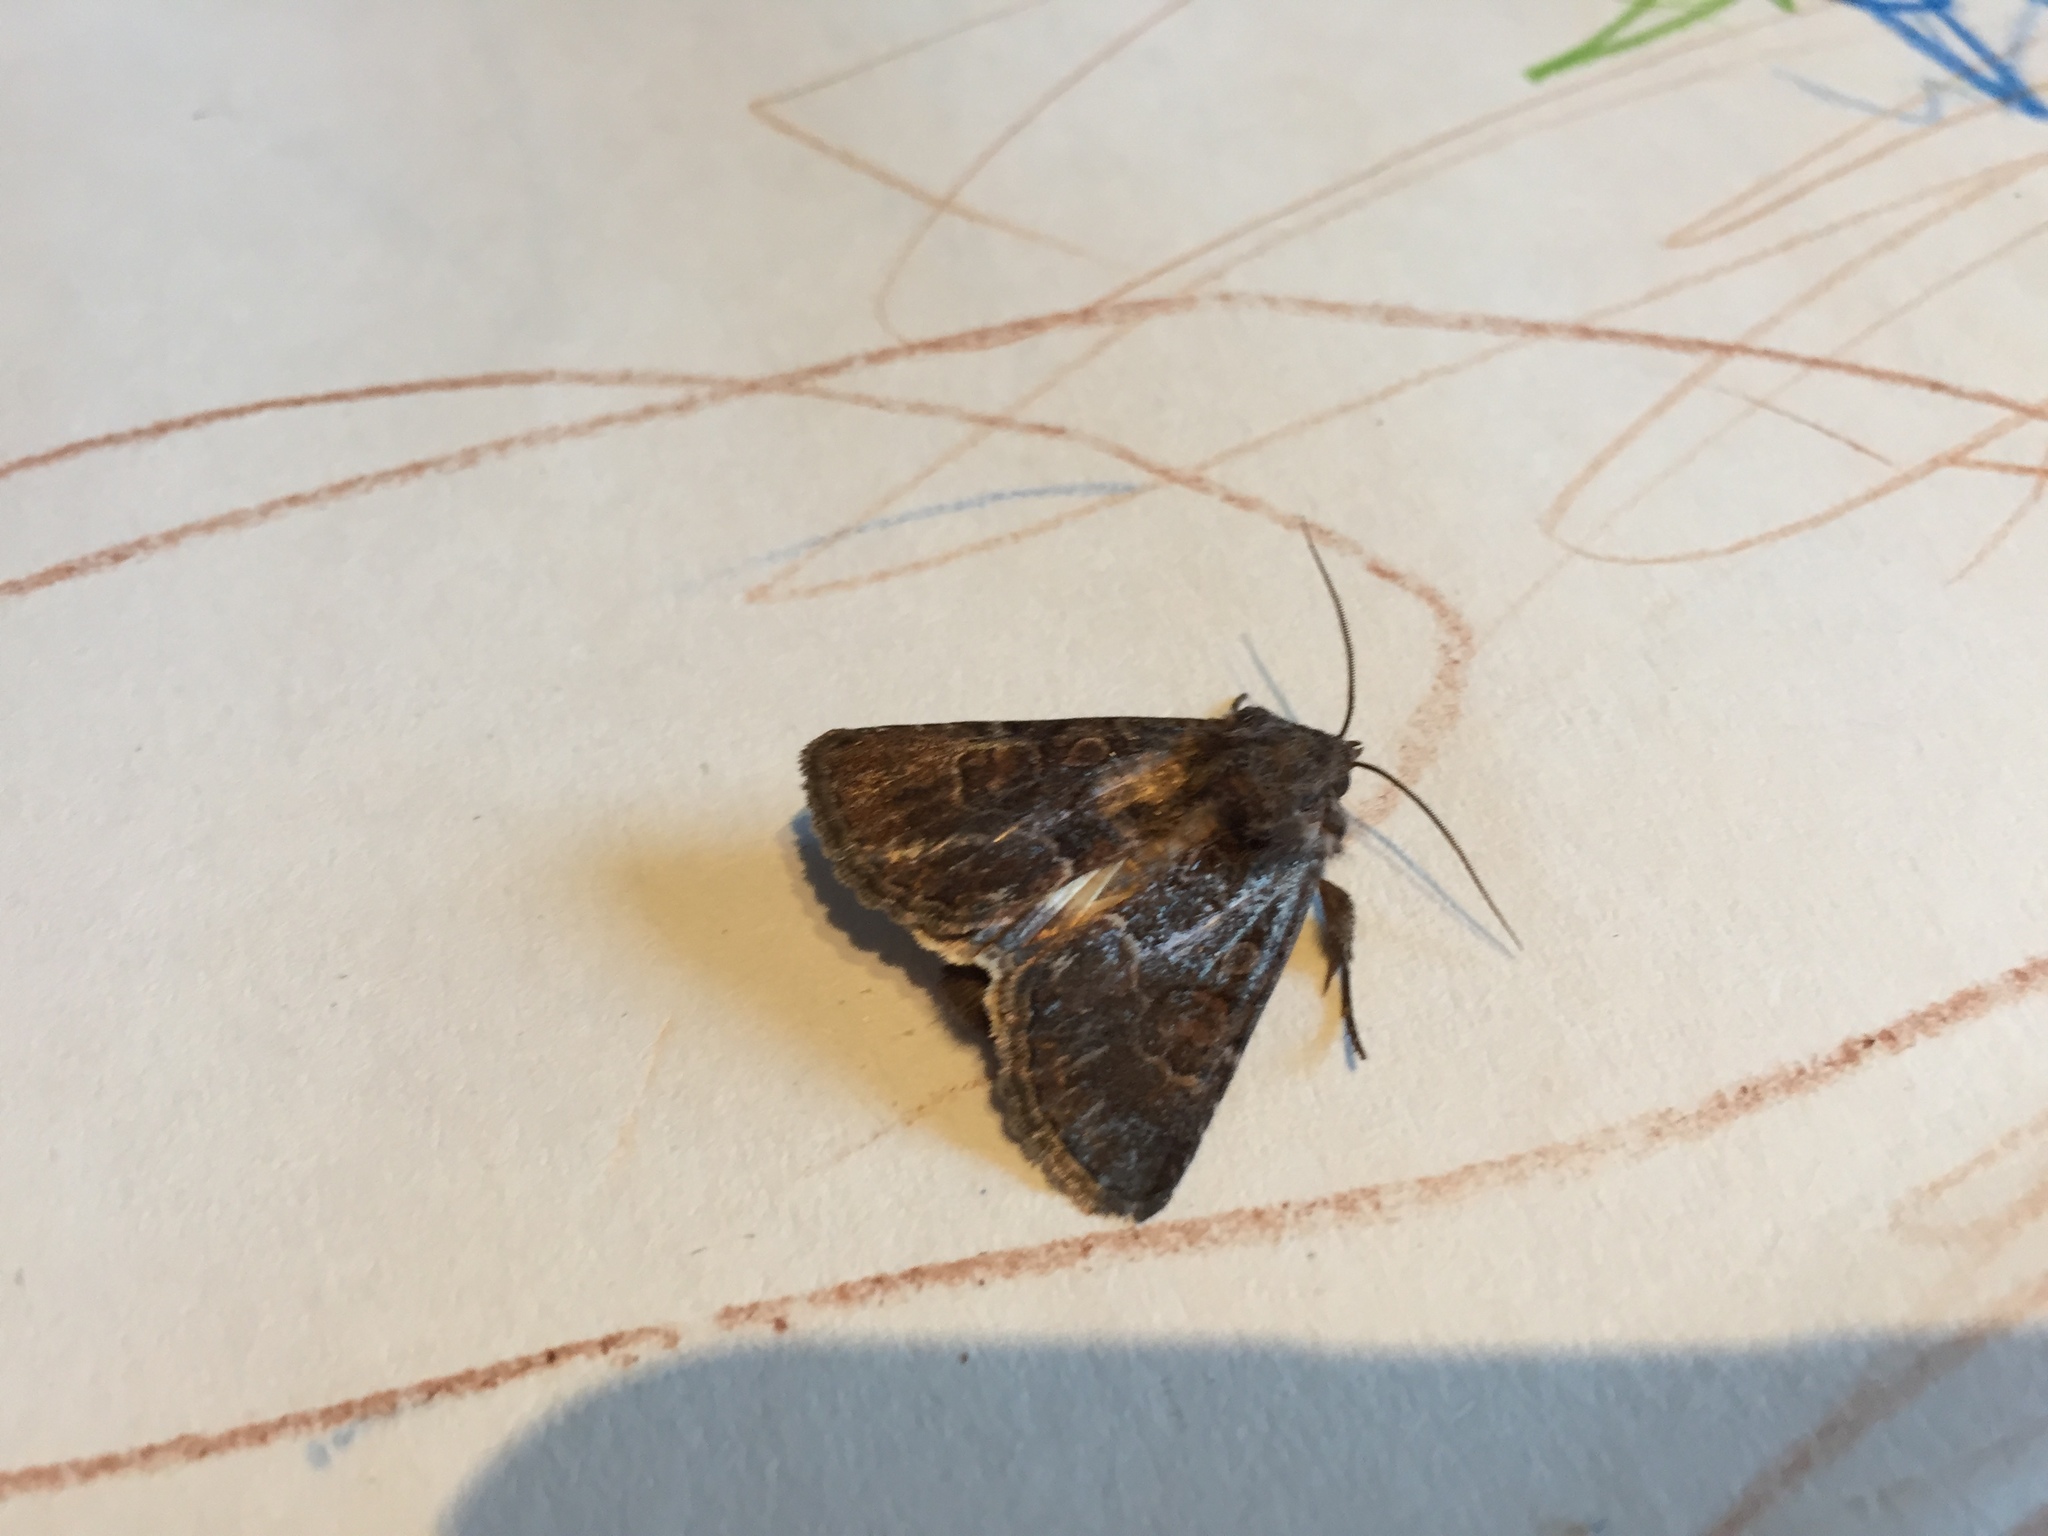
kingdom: Animalia
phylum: Arthropoda
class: Insecta
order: Lepidoptera
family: Noctuidae
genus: Thalpophila
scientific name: Thalpophila matura
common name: Straw underwing
